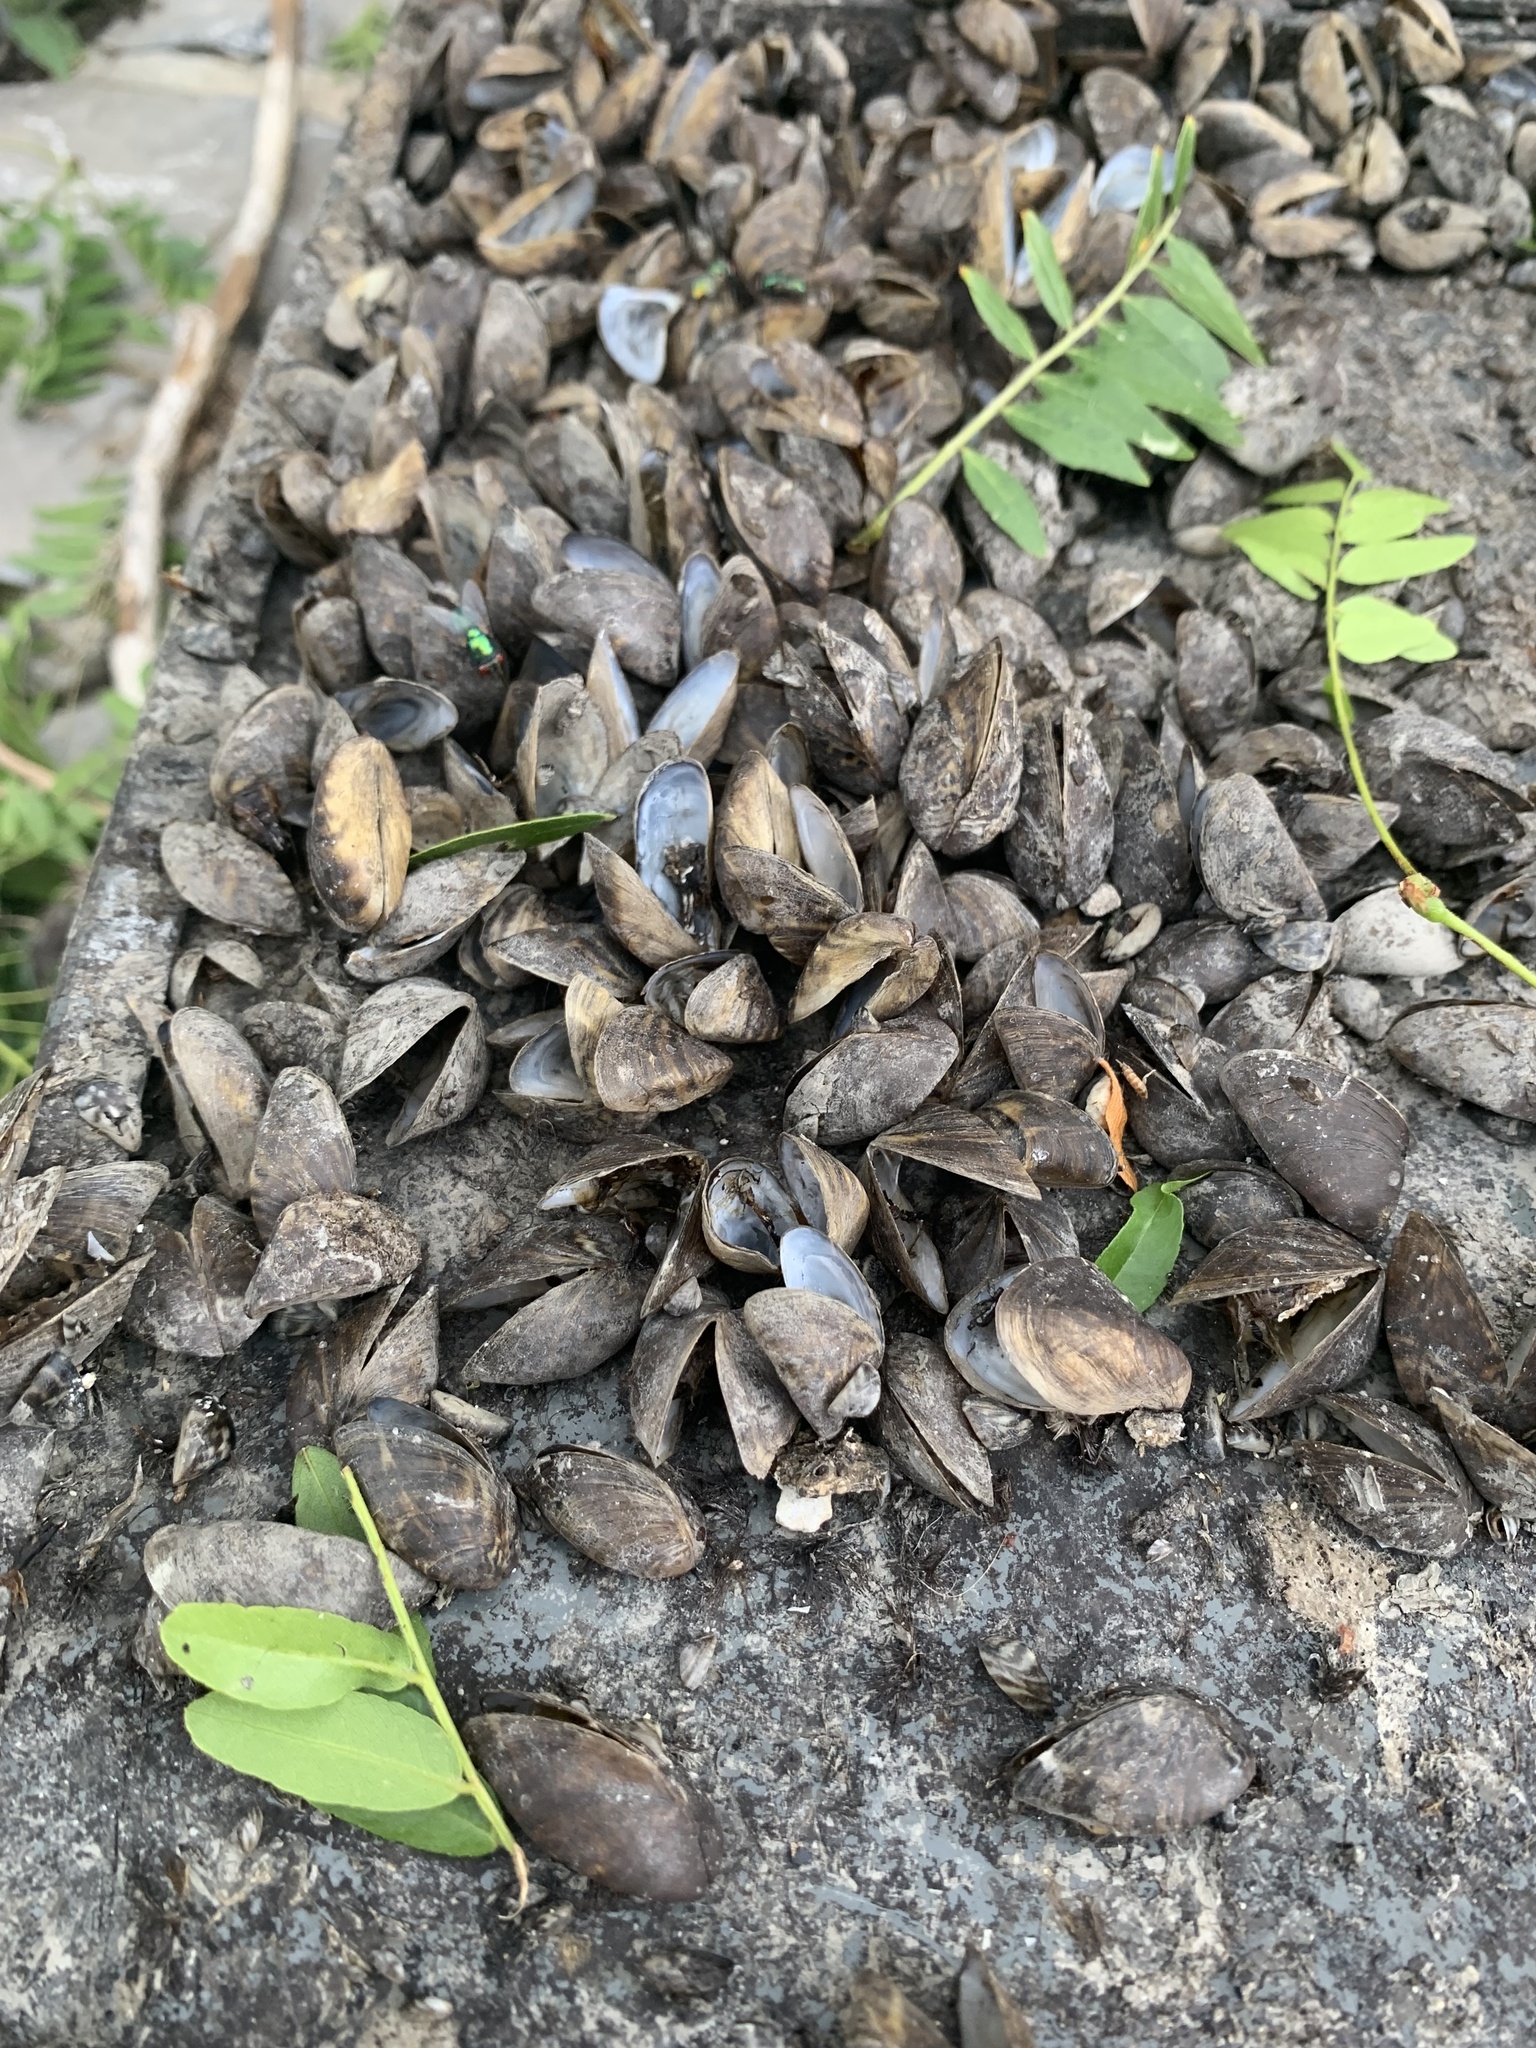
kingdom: Animalia
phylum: Mollusca
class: Bivalvia
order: Myida
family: Dreissenidae
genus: Dreissena
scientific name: Dreissena polymorpha
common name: Zebra mussel
